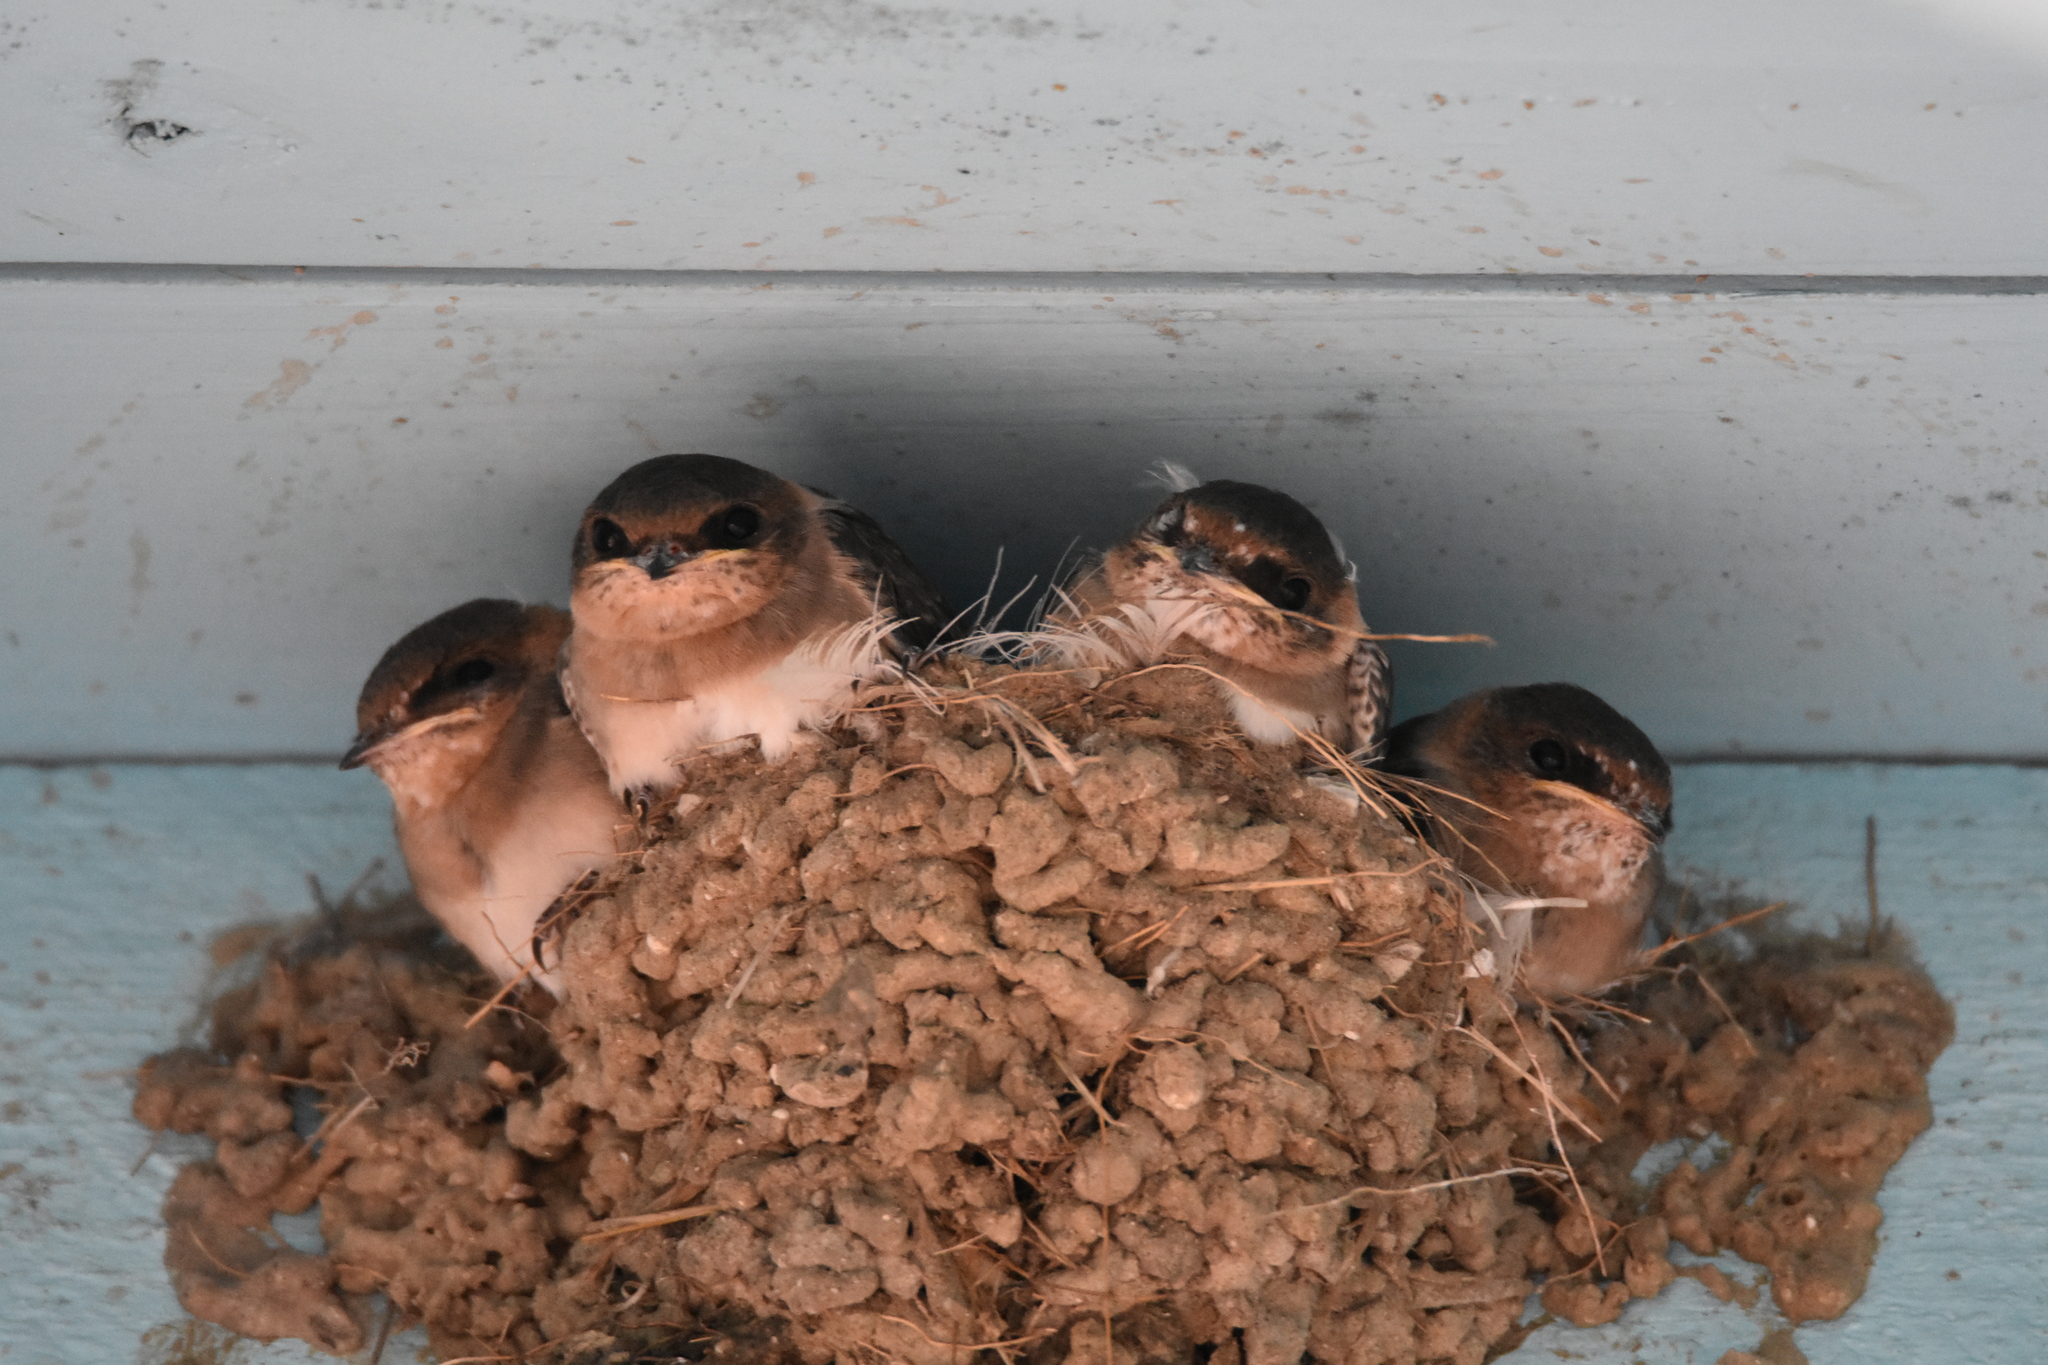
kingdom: Animalia
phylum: Chordata
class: Aves
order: Passeriformes
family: Hirundinidae
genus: Hirundo
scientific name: Hirundo rustica
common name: Barn swallow
